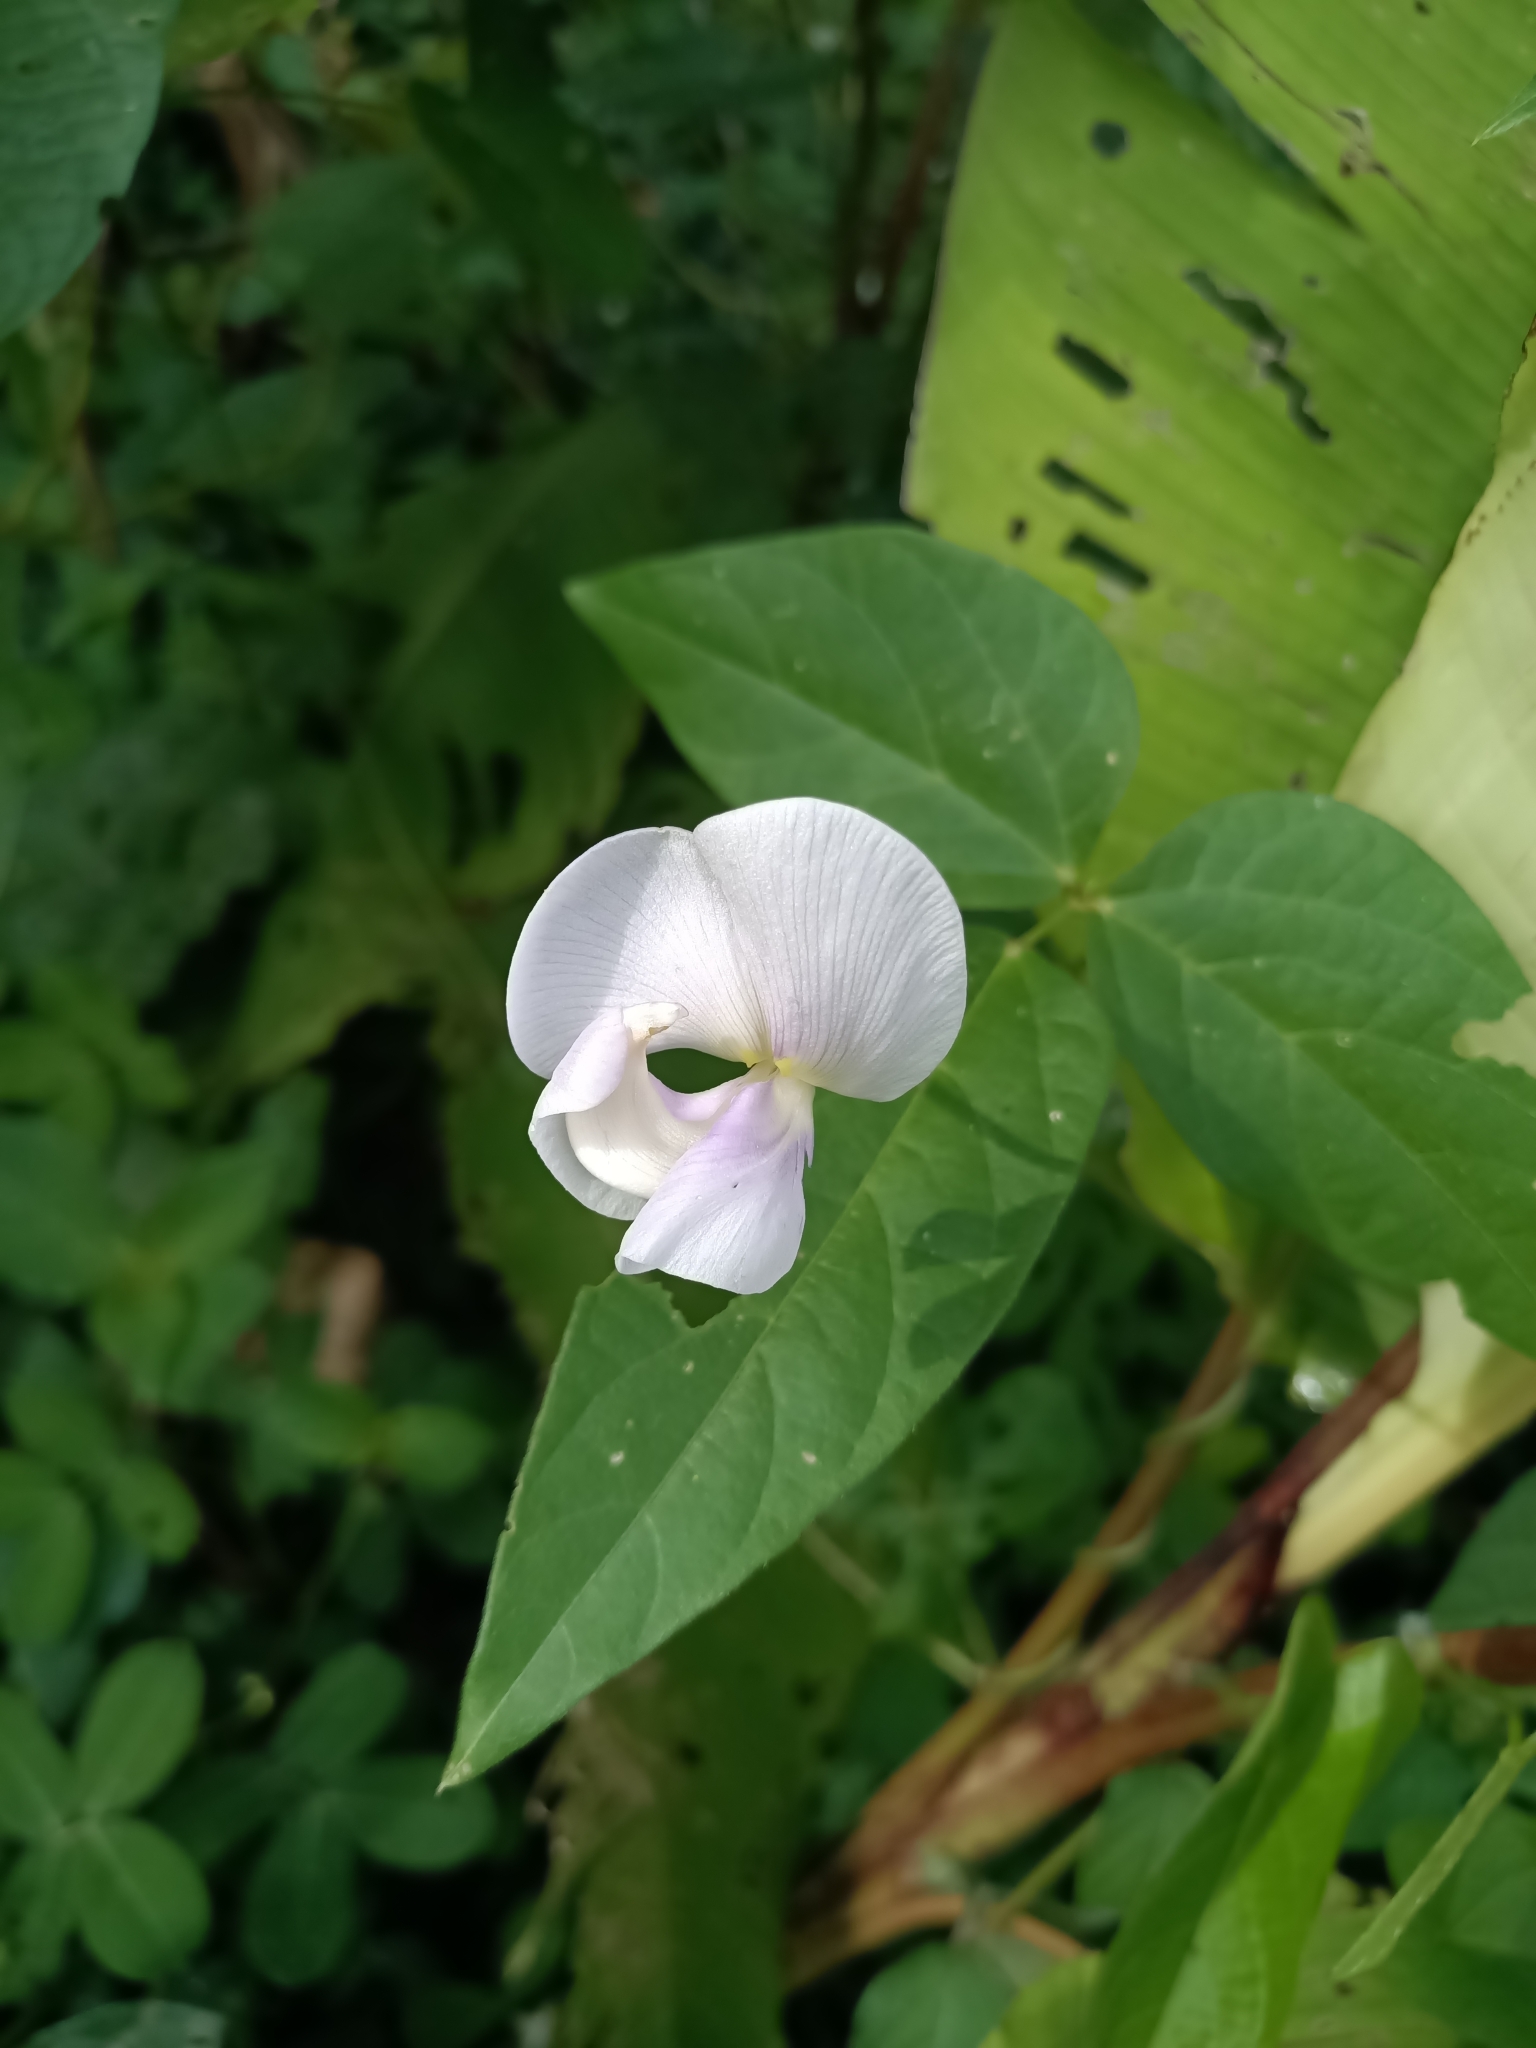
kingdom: Plantae
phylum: Tracheophyta
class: Magnoliopsida
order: Fabales
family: Fabaceae
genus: Vigna
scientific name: Vigna vexillata
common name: Zombi pea
